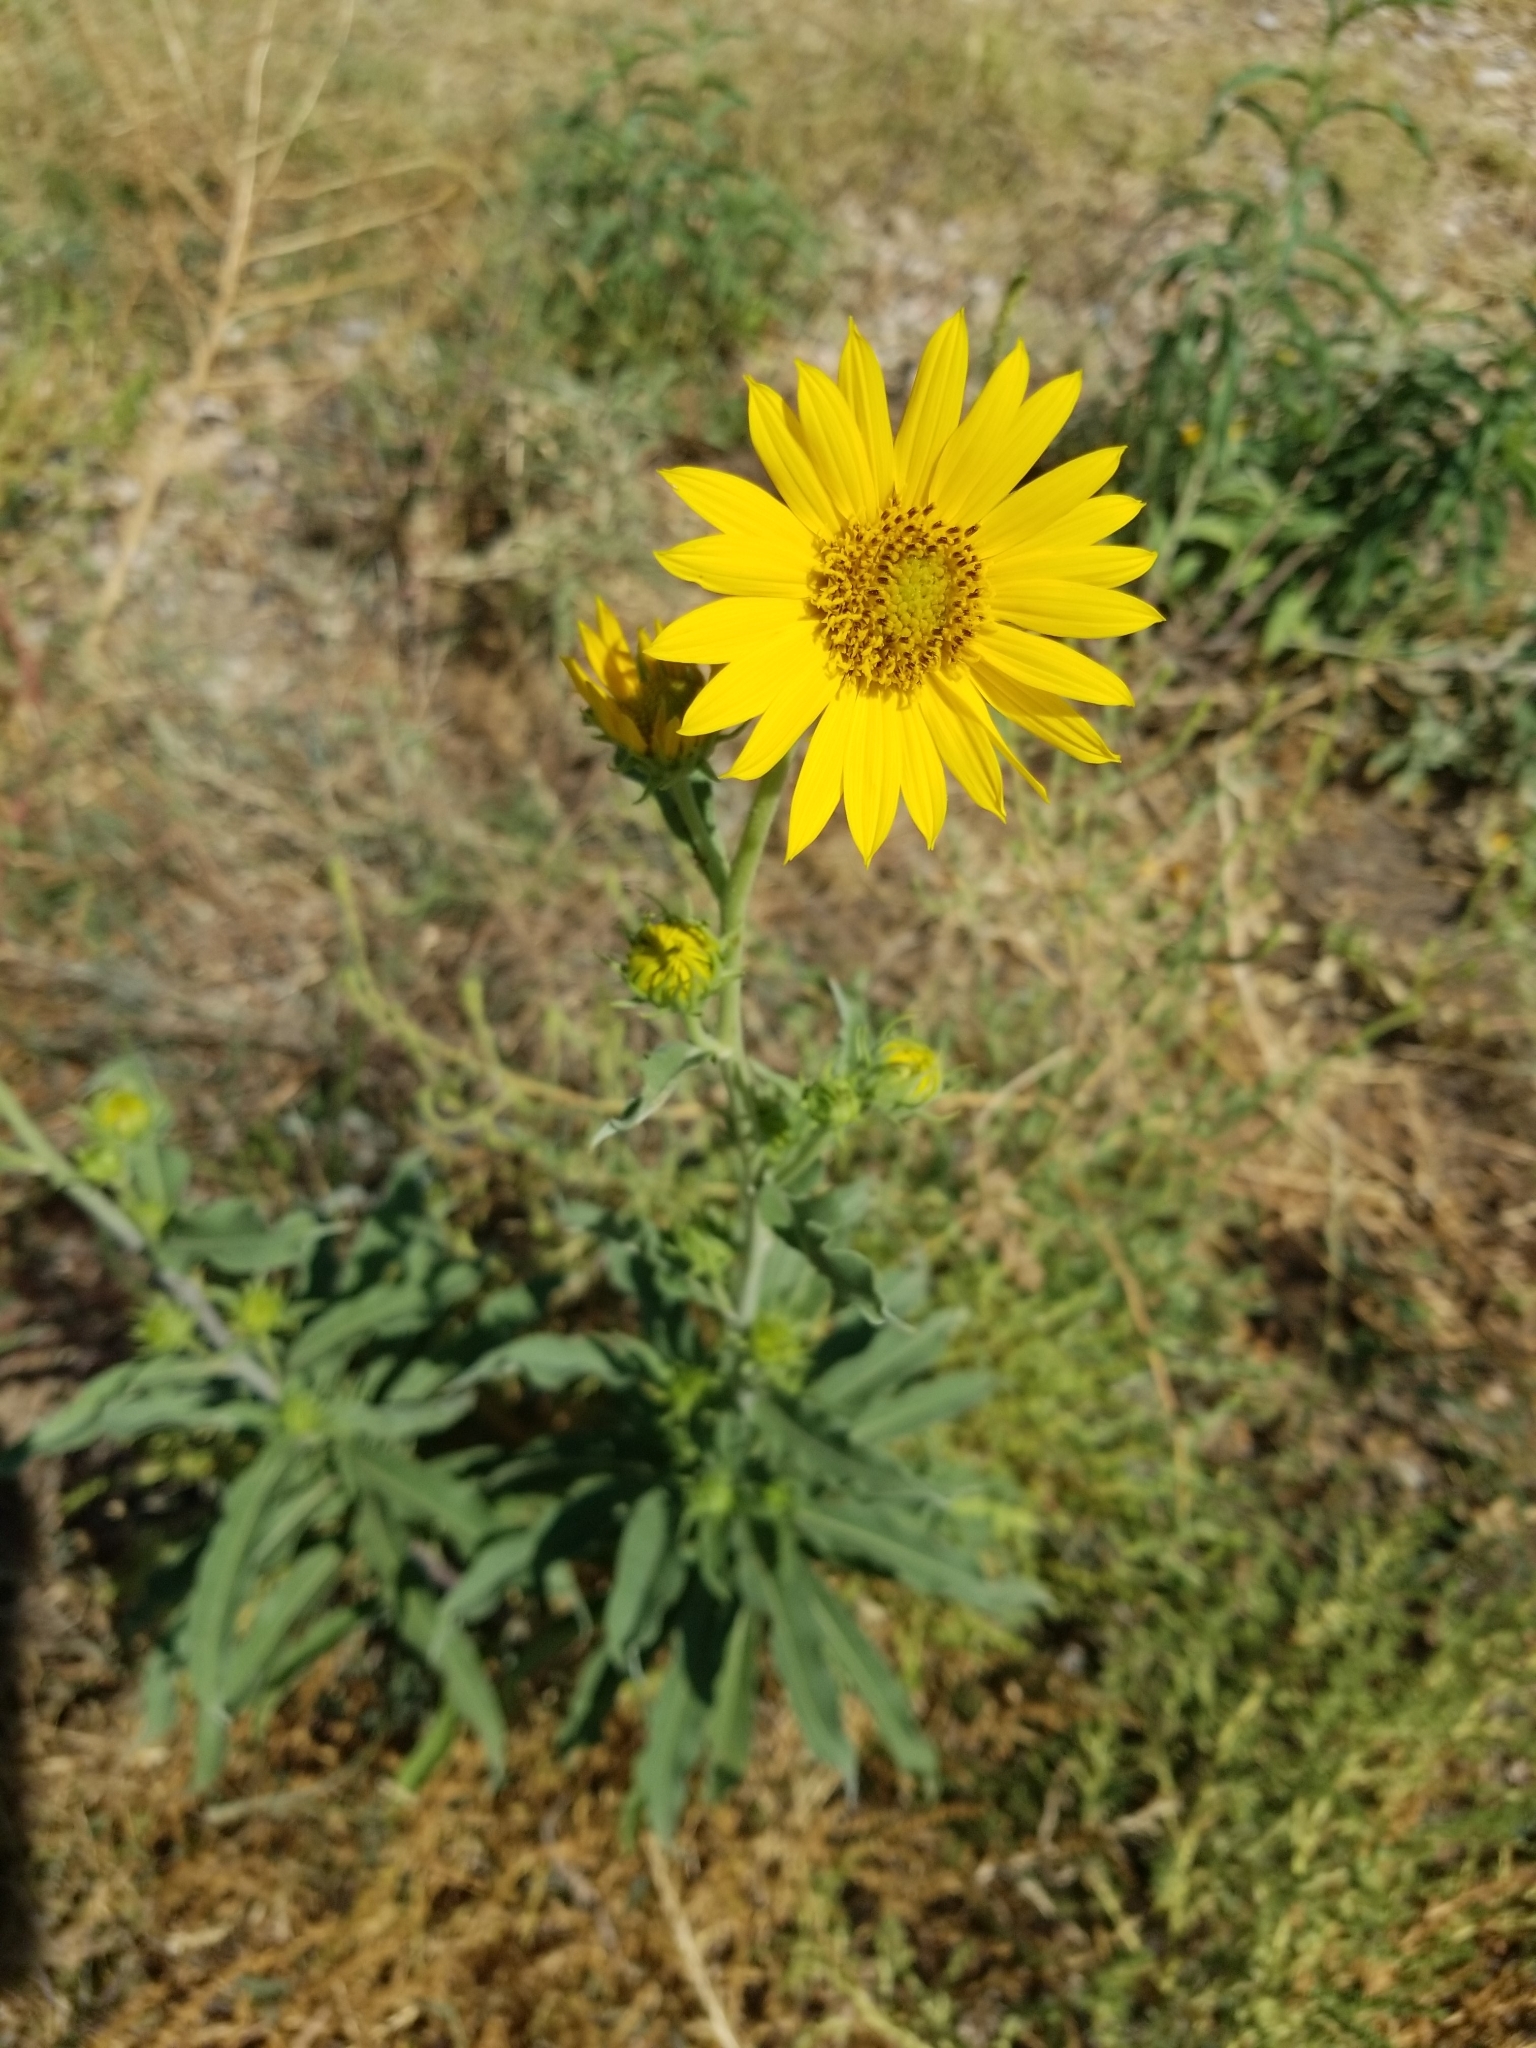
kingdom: Plantae
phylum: Tracheophyta
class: Magnoliopsida
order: Asterales
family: Asteraceae
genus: Helianthus
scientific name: Helianthus maximiliani
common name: Maximilian's sunflower
